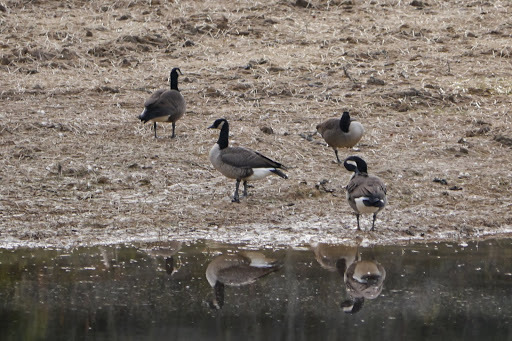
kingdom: Animalia
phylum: Chordata
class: Aves
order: Anseriformes
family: Anatidae
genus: Branta
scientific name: Branta canadensis
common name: Canada goose
